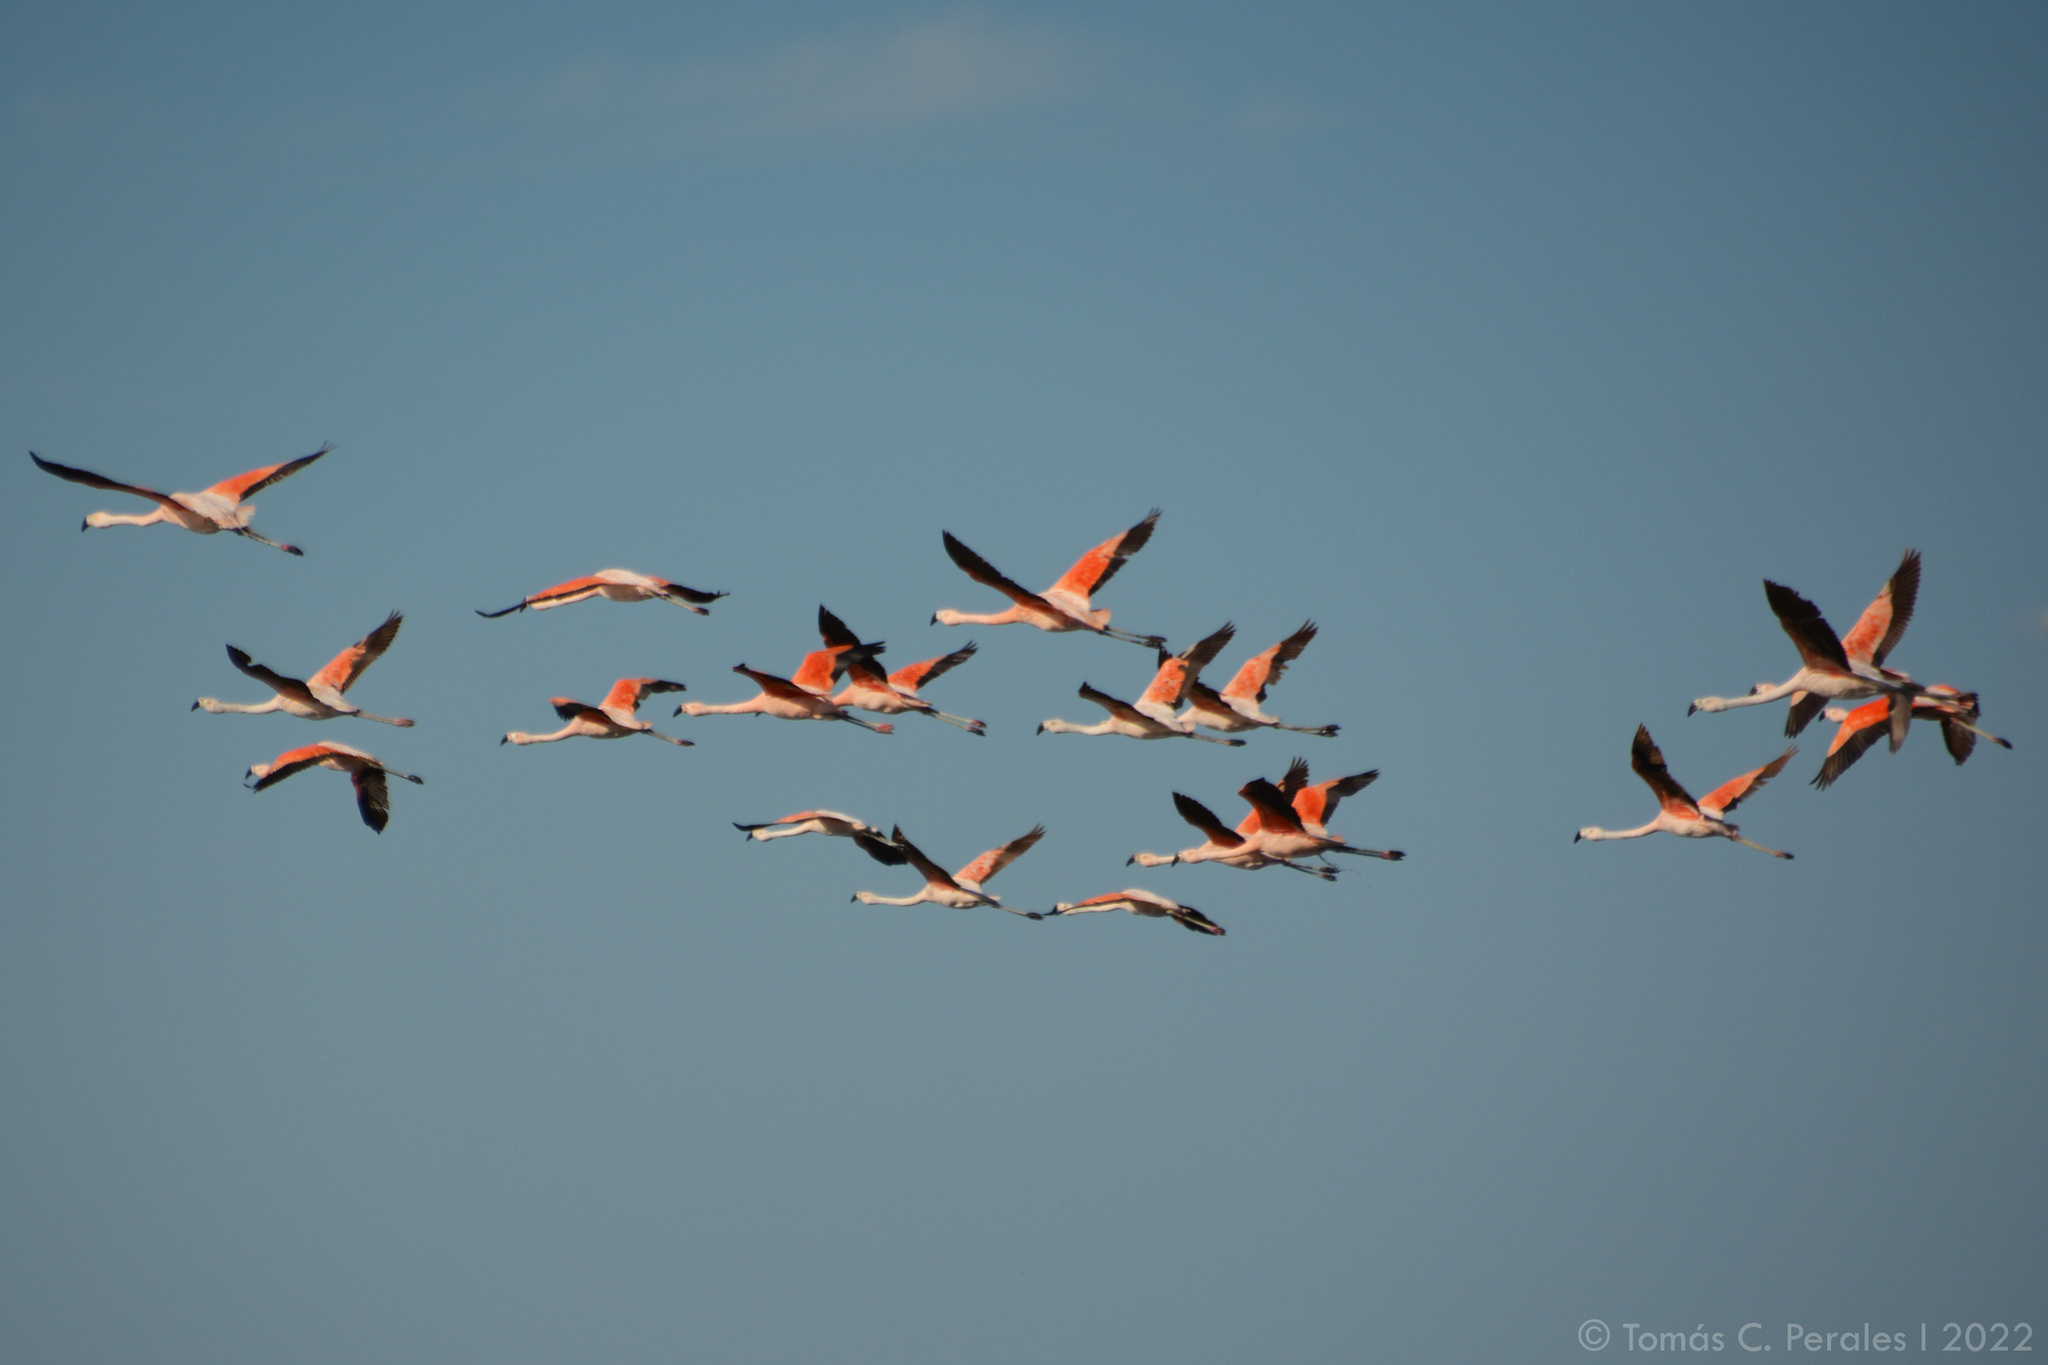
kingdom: Animalia
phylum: Chordata
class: Aves
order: Phoenicopteriformes
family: Phoenicopteridae
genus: Phoenicopterus
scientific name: Phoenicopterus chilensis
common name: Chilean flamingo
